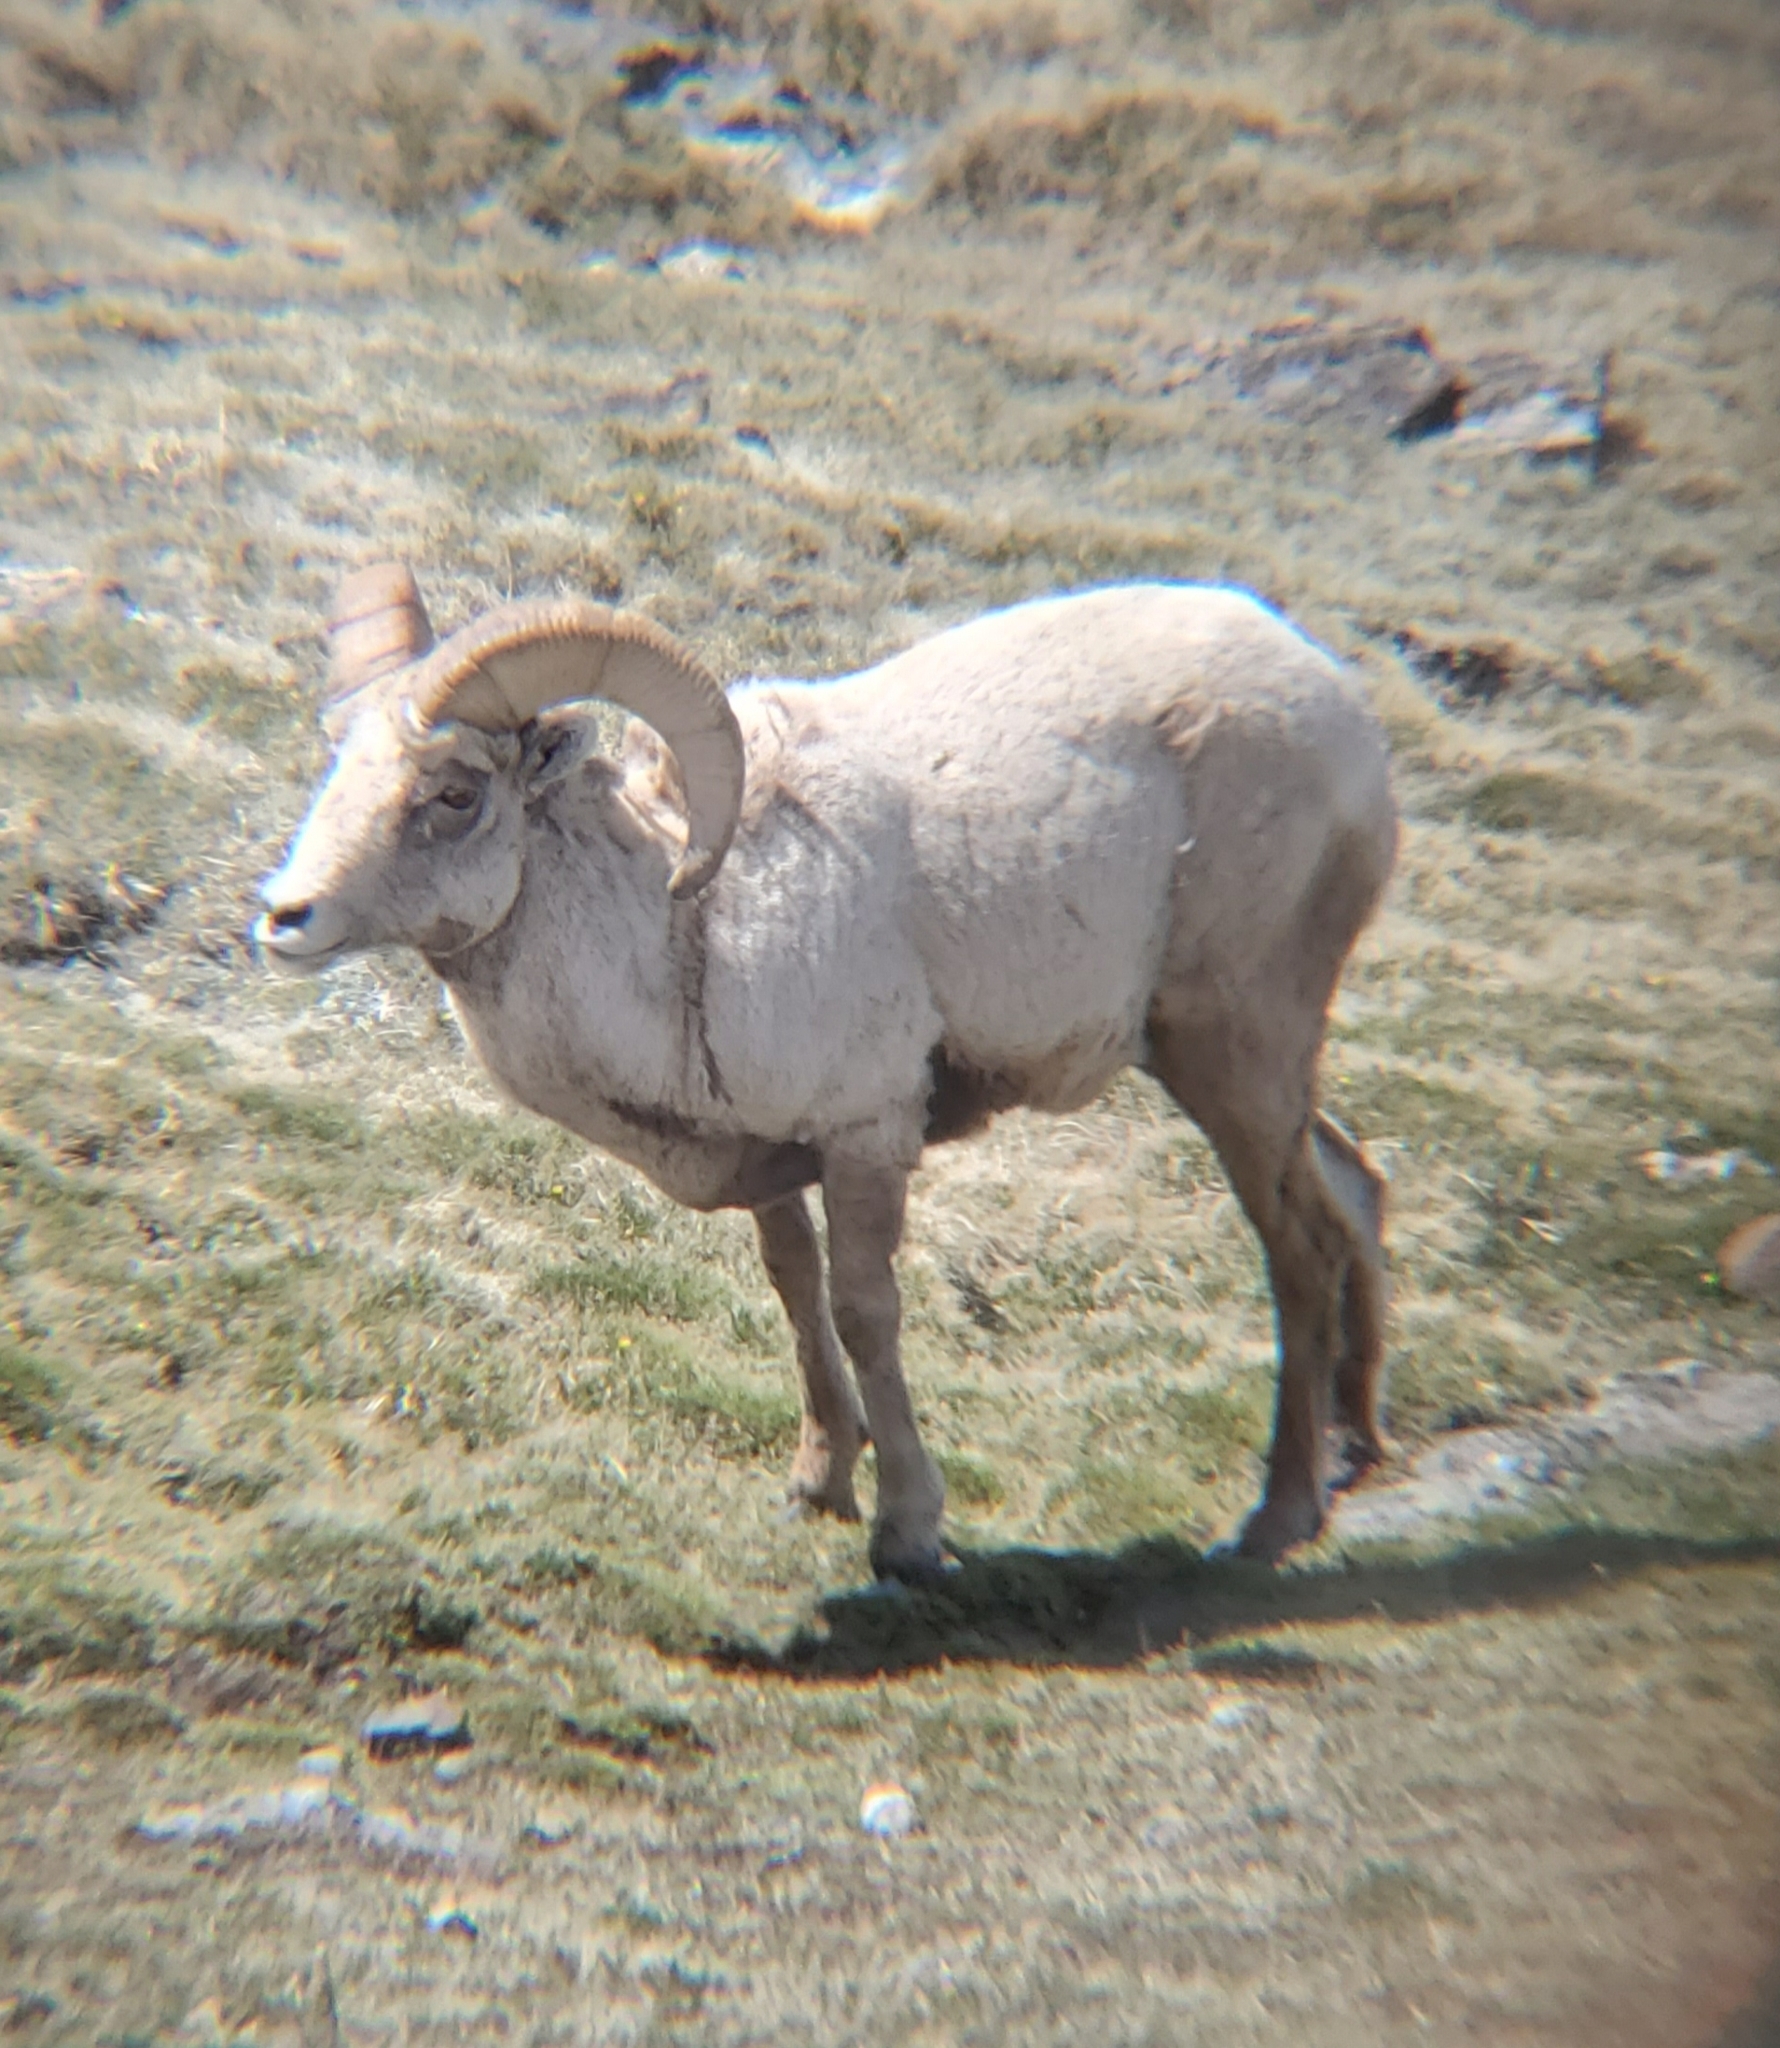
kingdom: Animalia
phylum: Chordata
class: Mammalia
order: Artiodactyla
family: Bovidae
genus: Ovis
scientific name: Ovis canadensis
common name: Bighorn sheep
